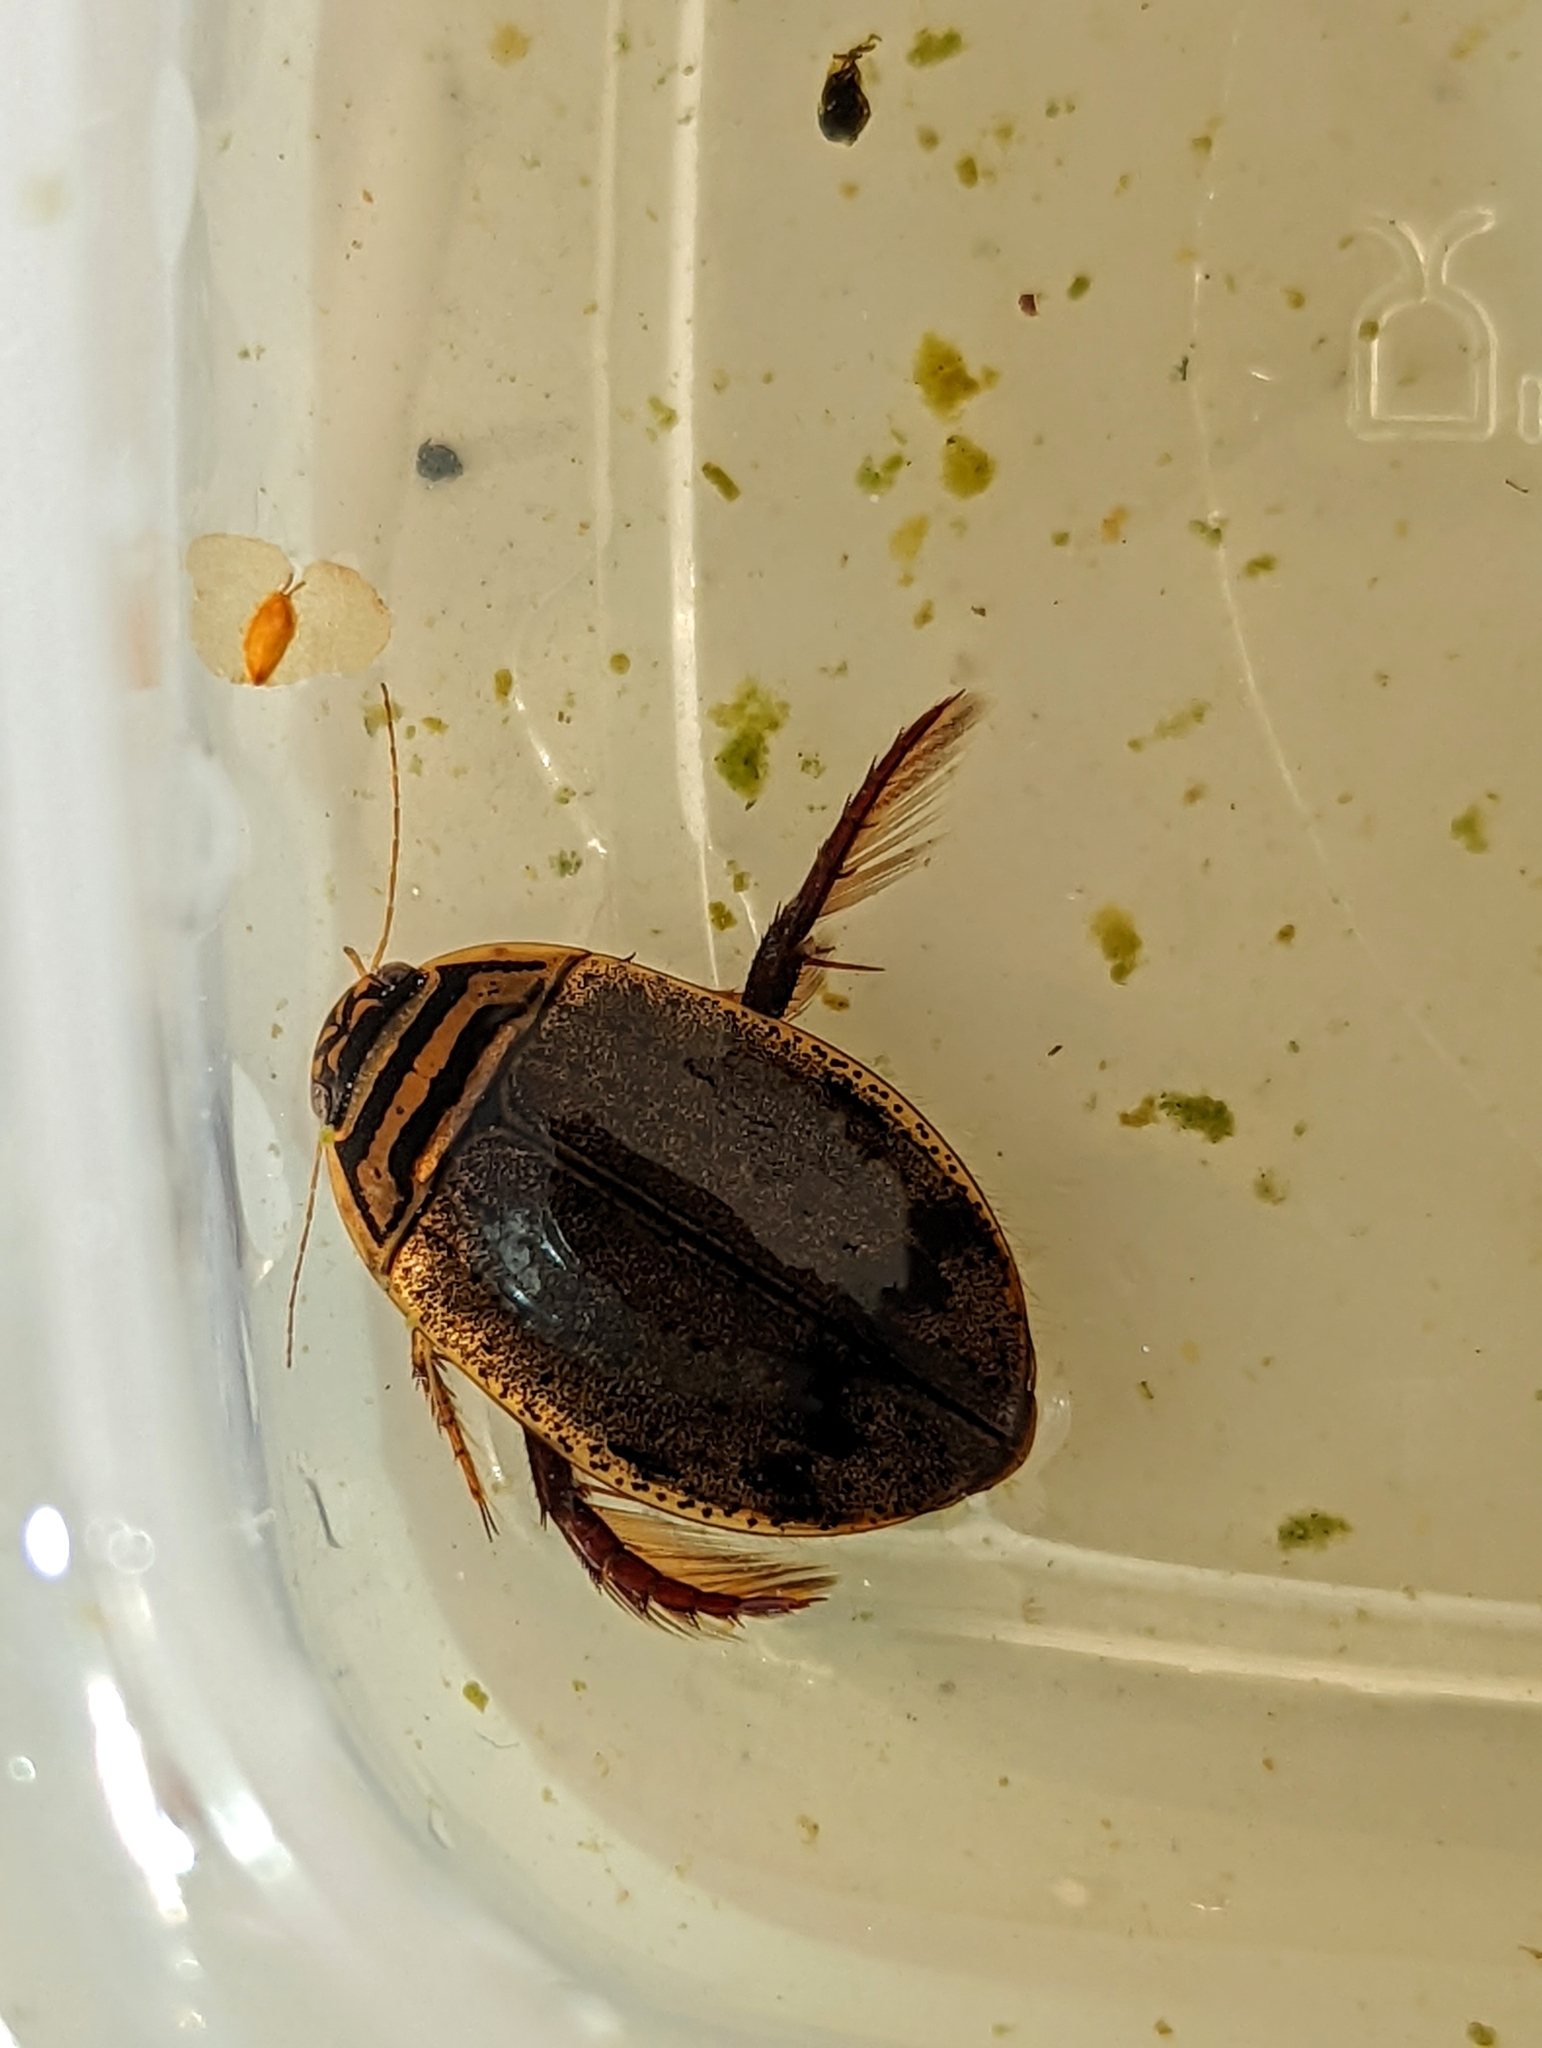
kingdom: Animalia
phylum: Arthropoda
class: Insecta
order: Coleoptera
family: Dytiscidae
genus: Acilius
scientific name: Acilius sulcatus
